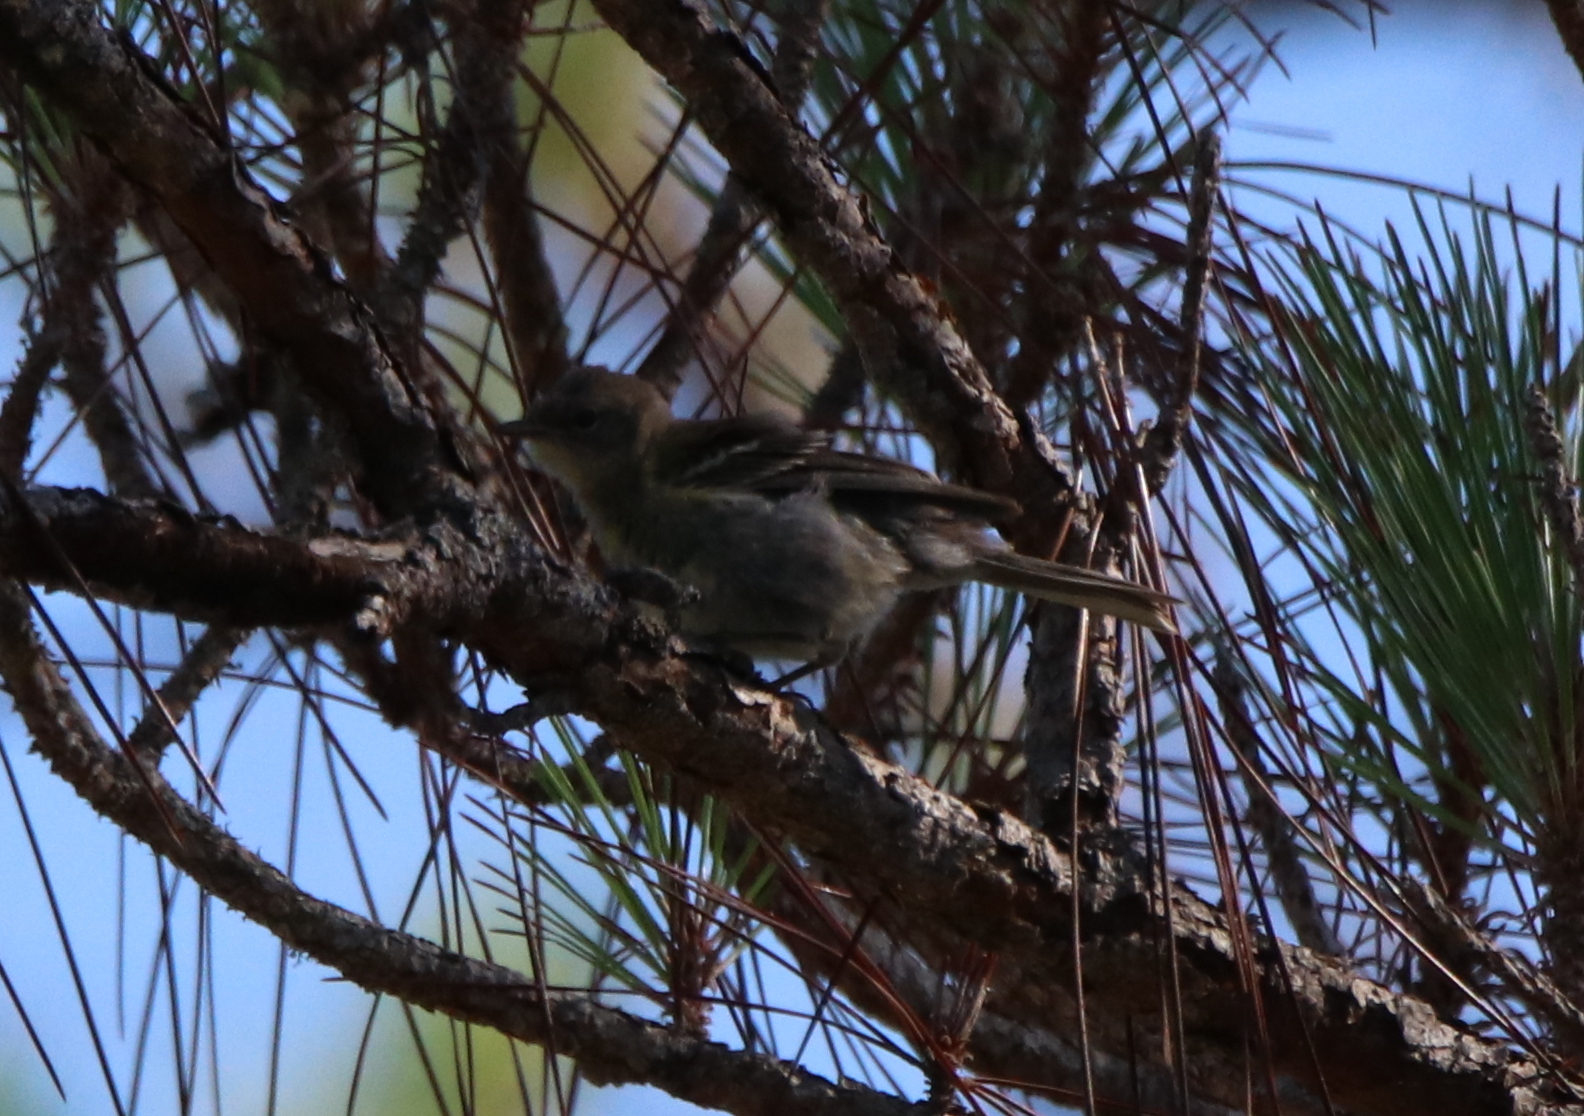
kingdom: Animalia
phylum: Chordata
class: Aves
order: Passeriformes
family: Parulidae
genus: Setophaga
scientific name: Setophaga pinus
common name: Pine warbler
